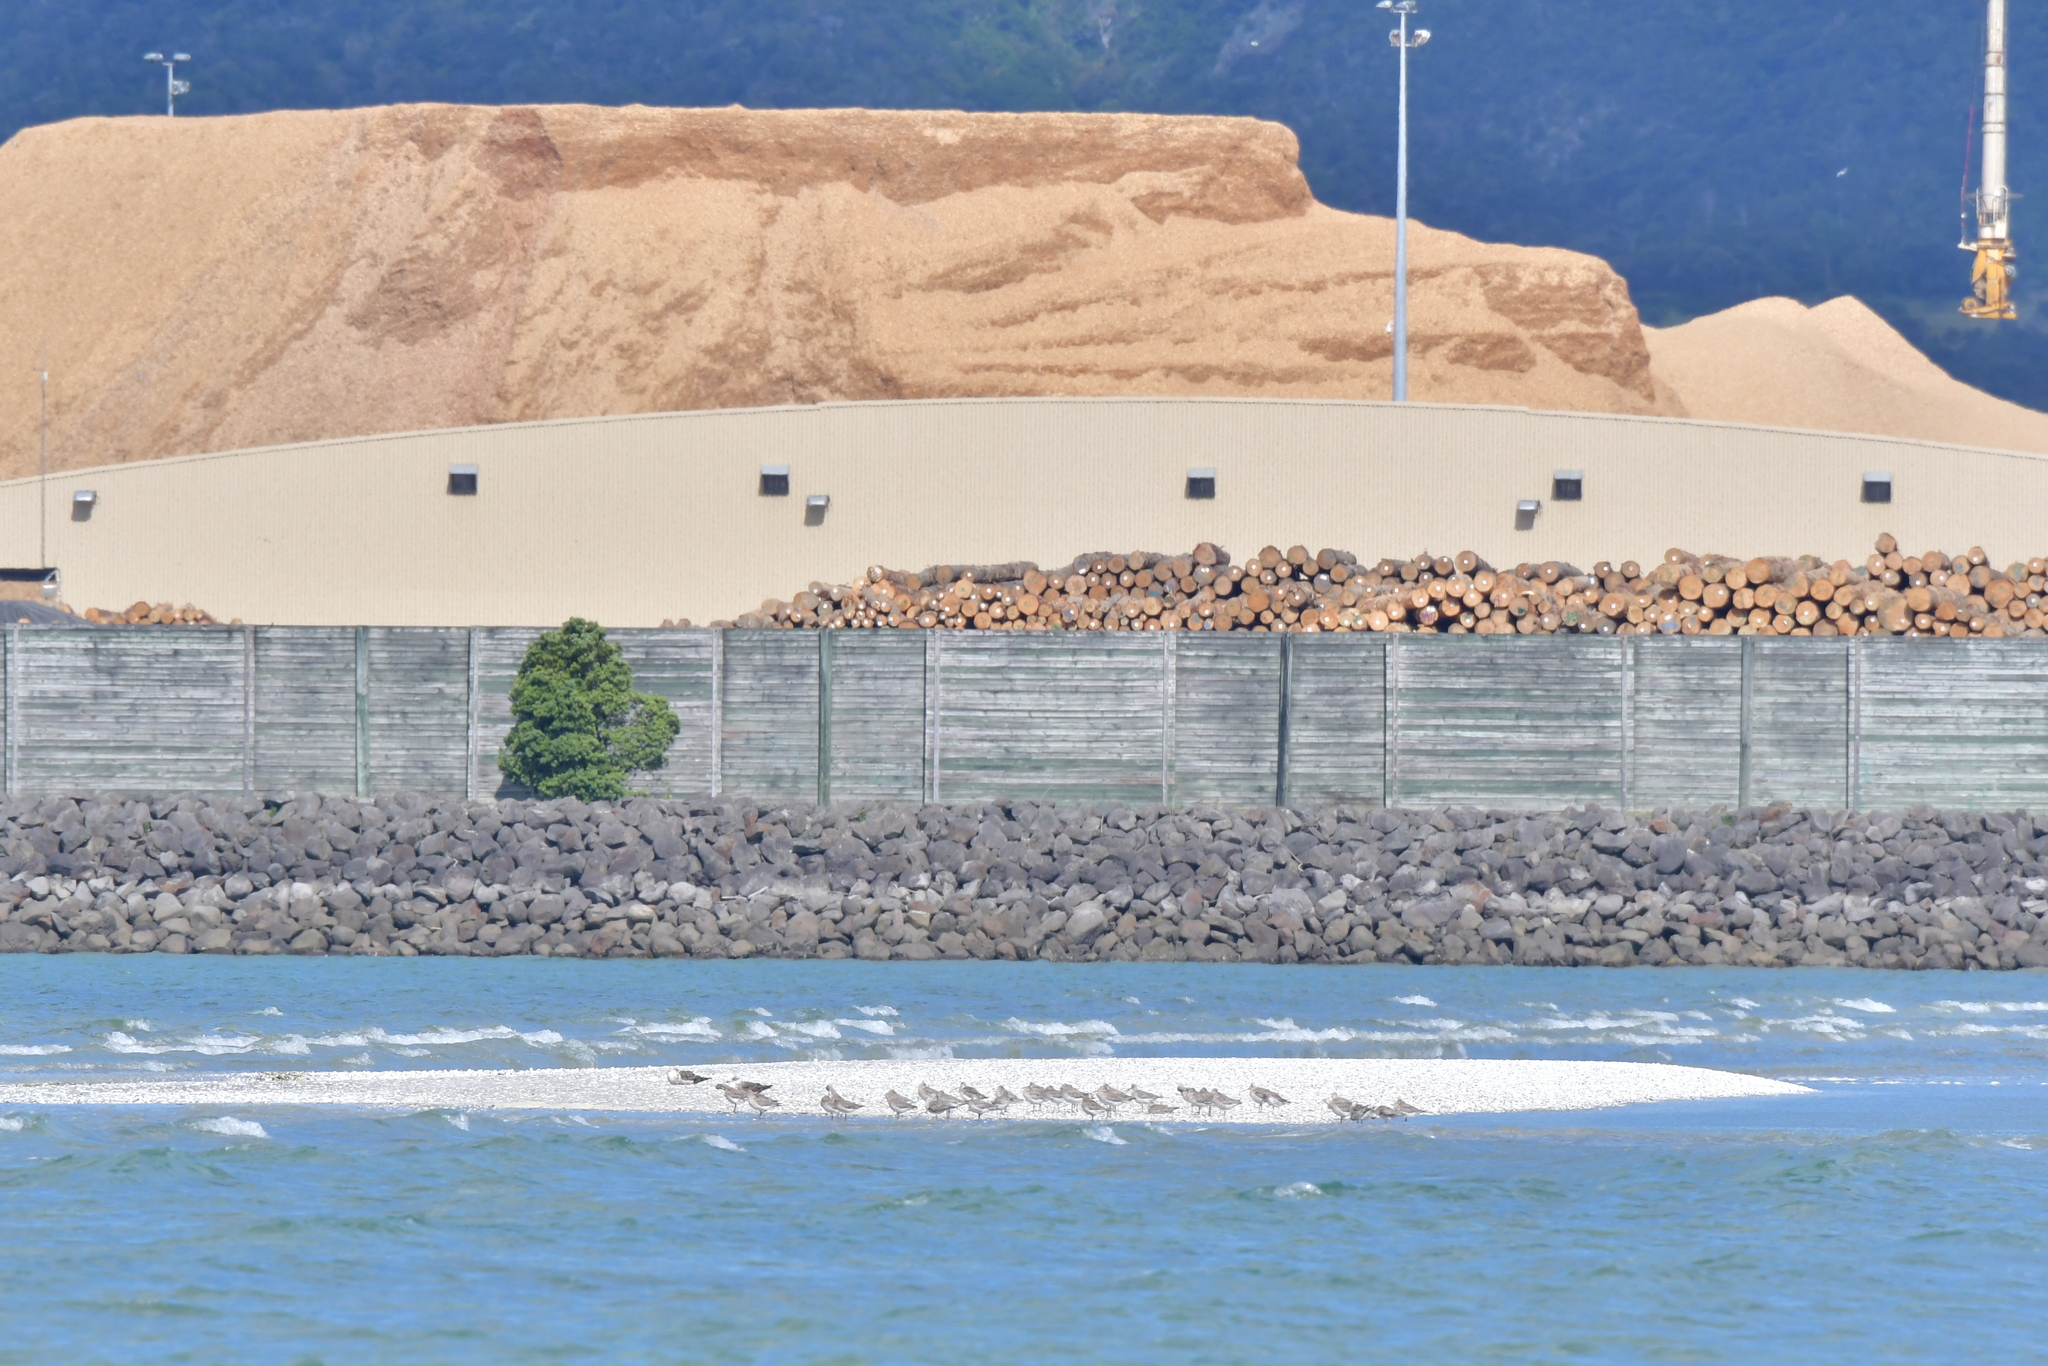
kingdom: Animalia
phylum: Chordata
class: Aves
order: Charadriiformes
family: Scolopacidae
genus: Limosa
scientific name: Limosa lapponica
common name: Bar-tailed godwit
